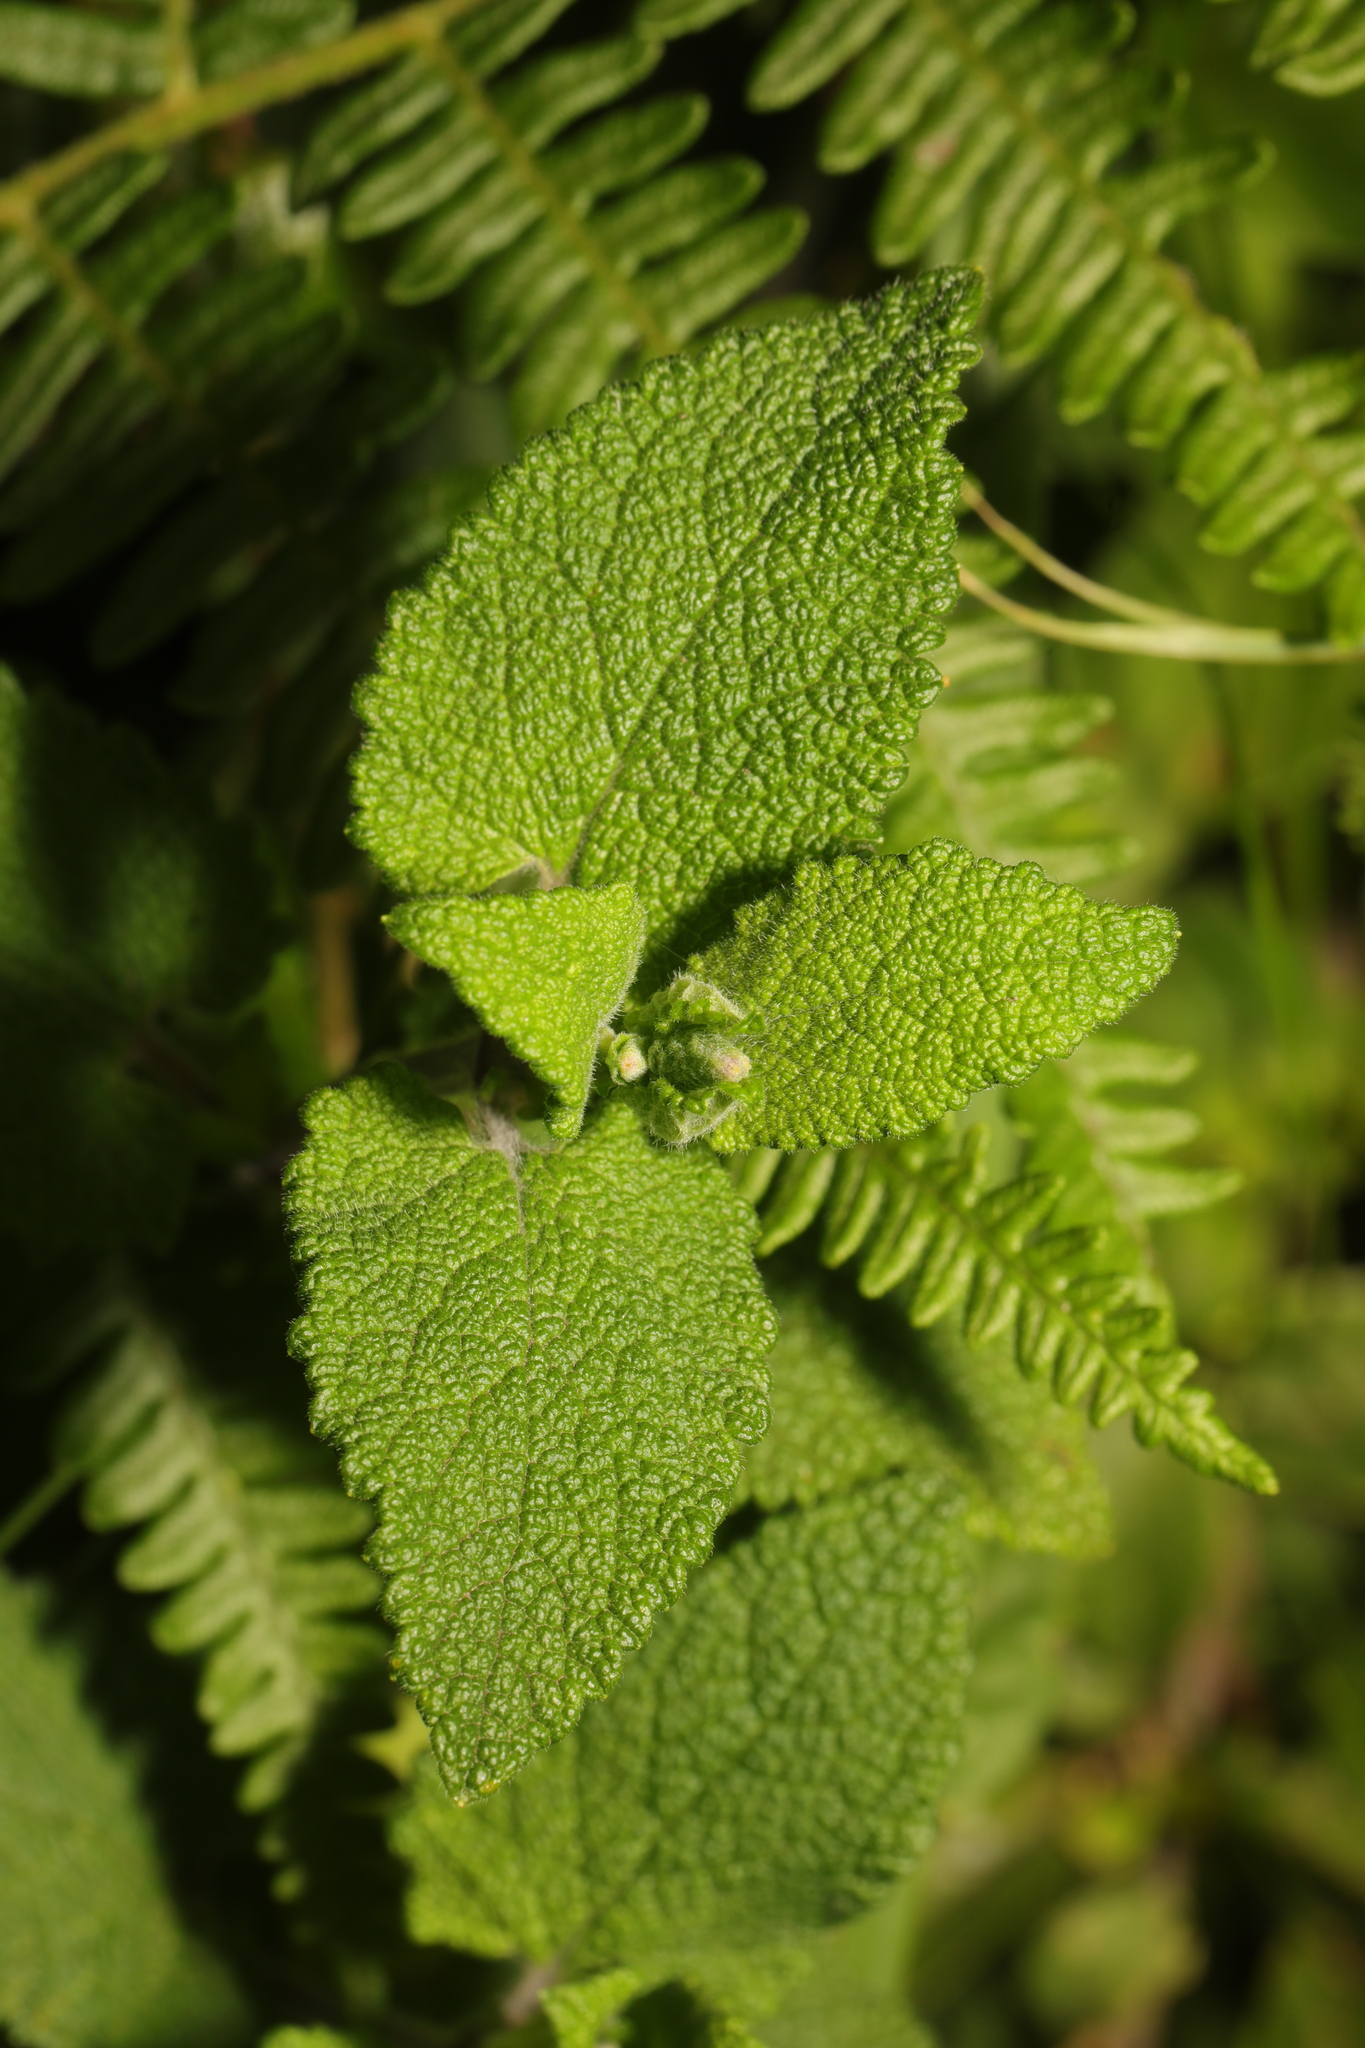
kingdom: Plantae
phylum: Tracheophyta
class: Magnoliopsida
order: Lamiales
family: Lamiaceae
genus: Teucrium
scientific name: Teucrium scorodonia
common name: Woodland germander
